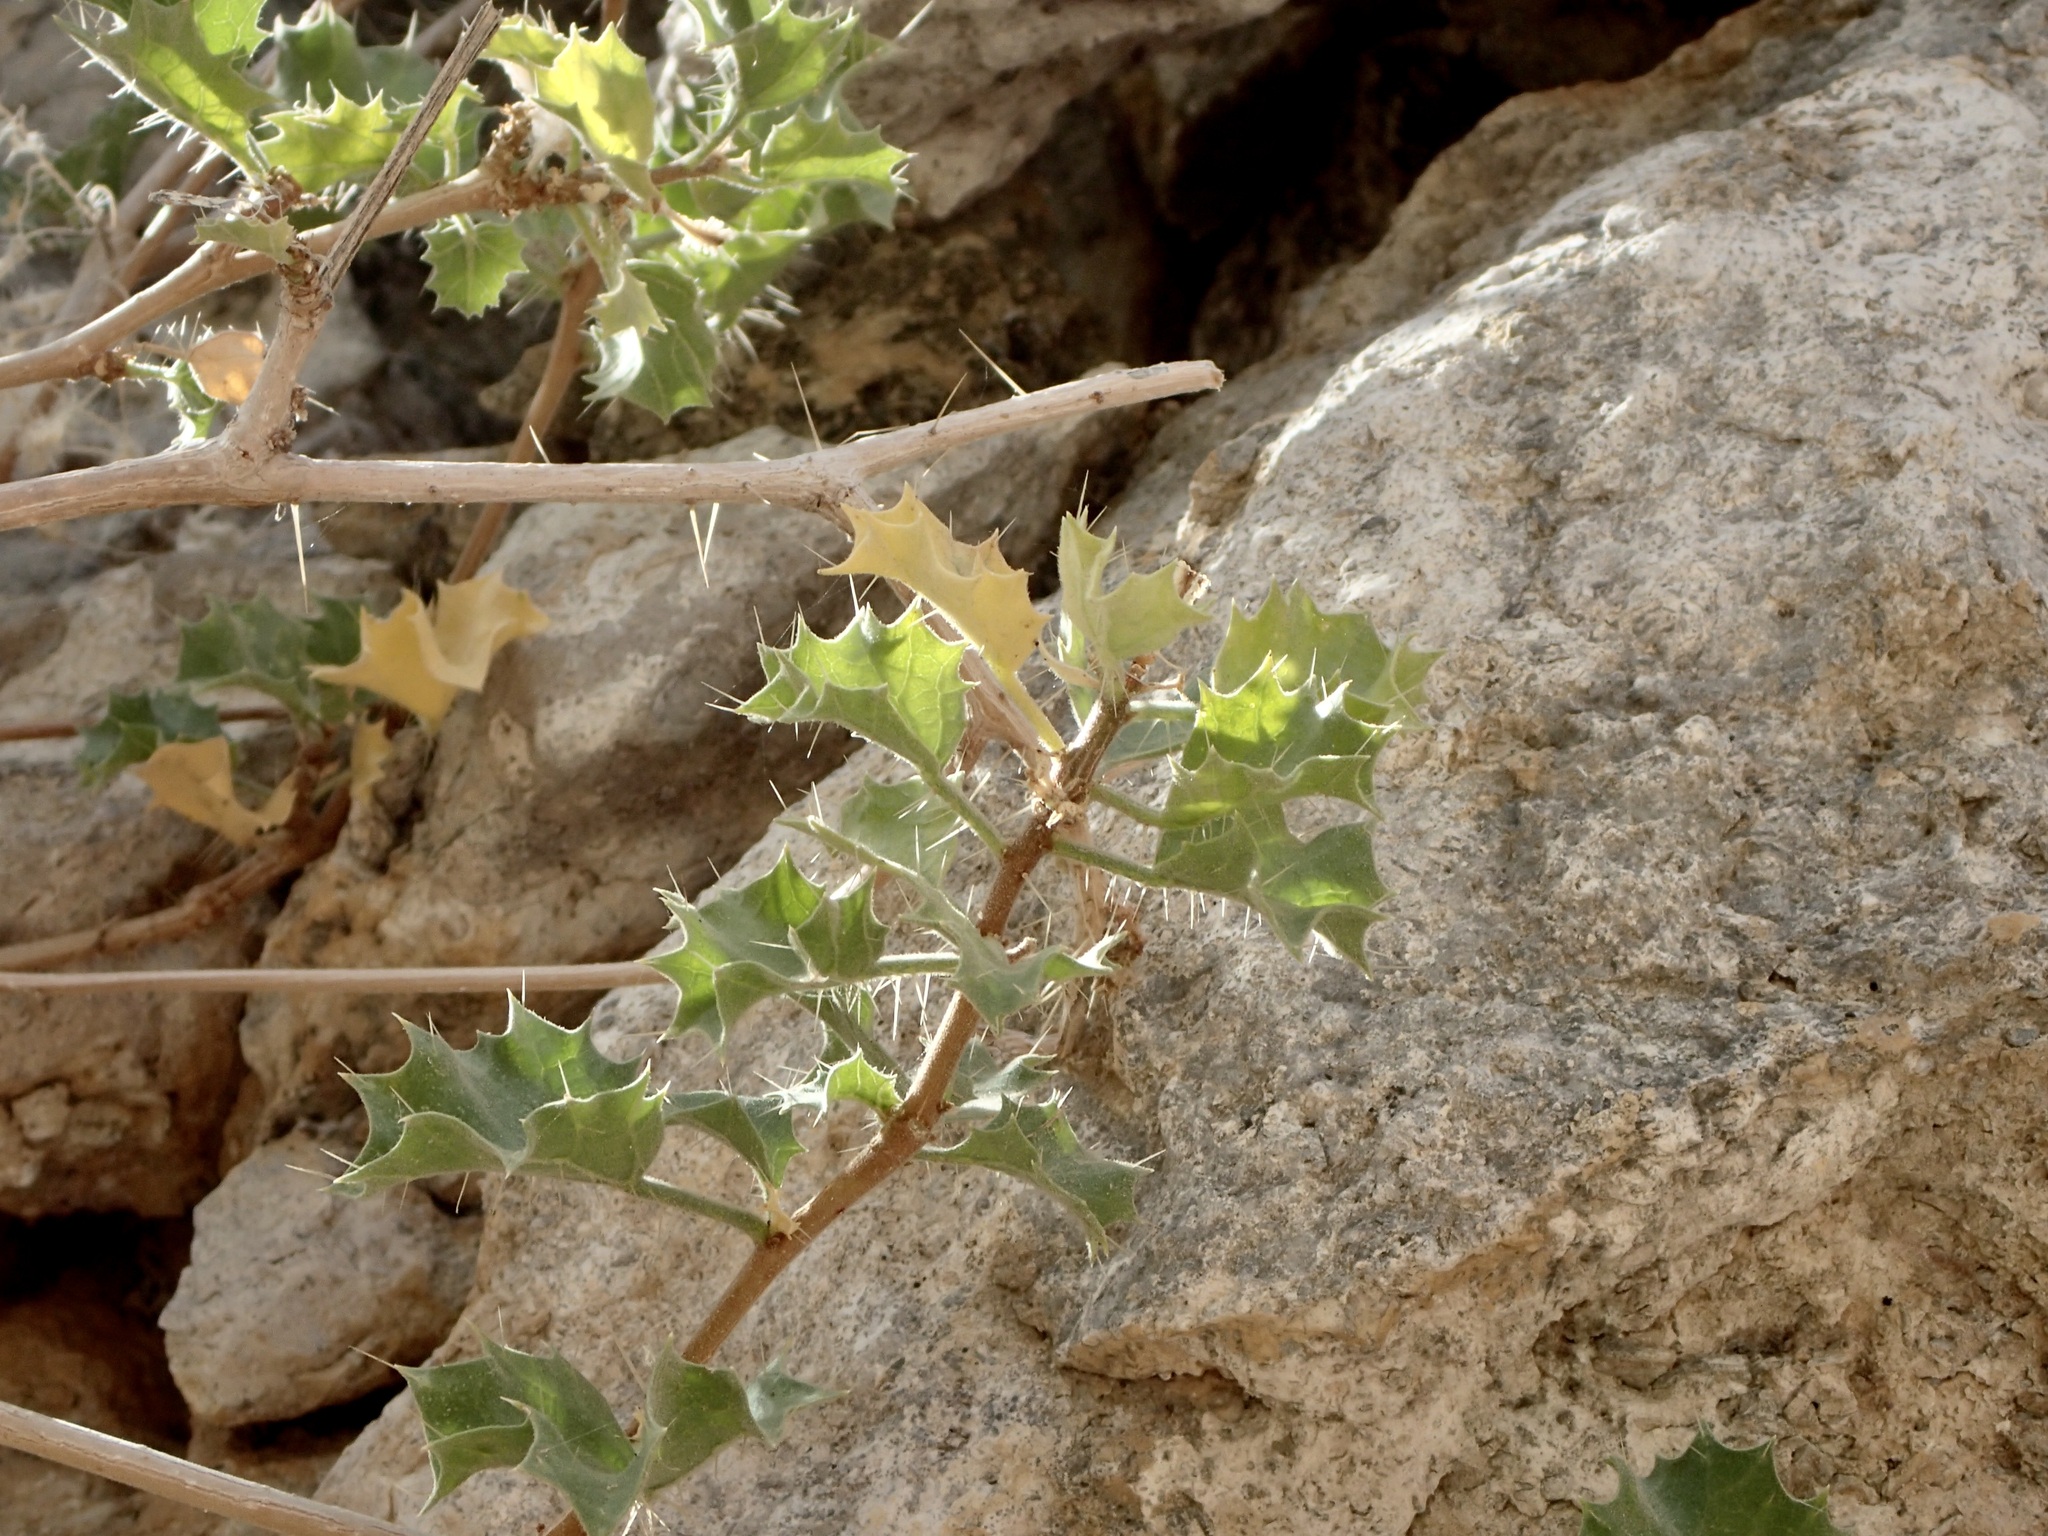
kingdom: Plantae
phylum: Tracheophyta
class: Magnoliopsida
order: Malpighiales
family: Euphorbiaceae
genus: Cnidoscolus
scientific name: Cnidoscolus palmeri
